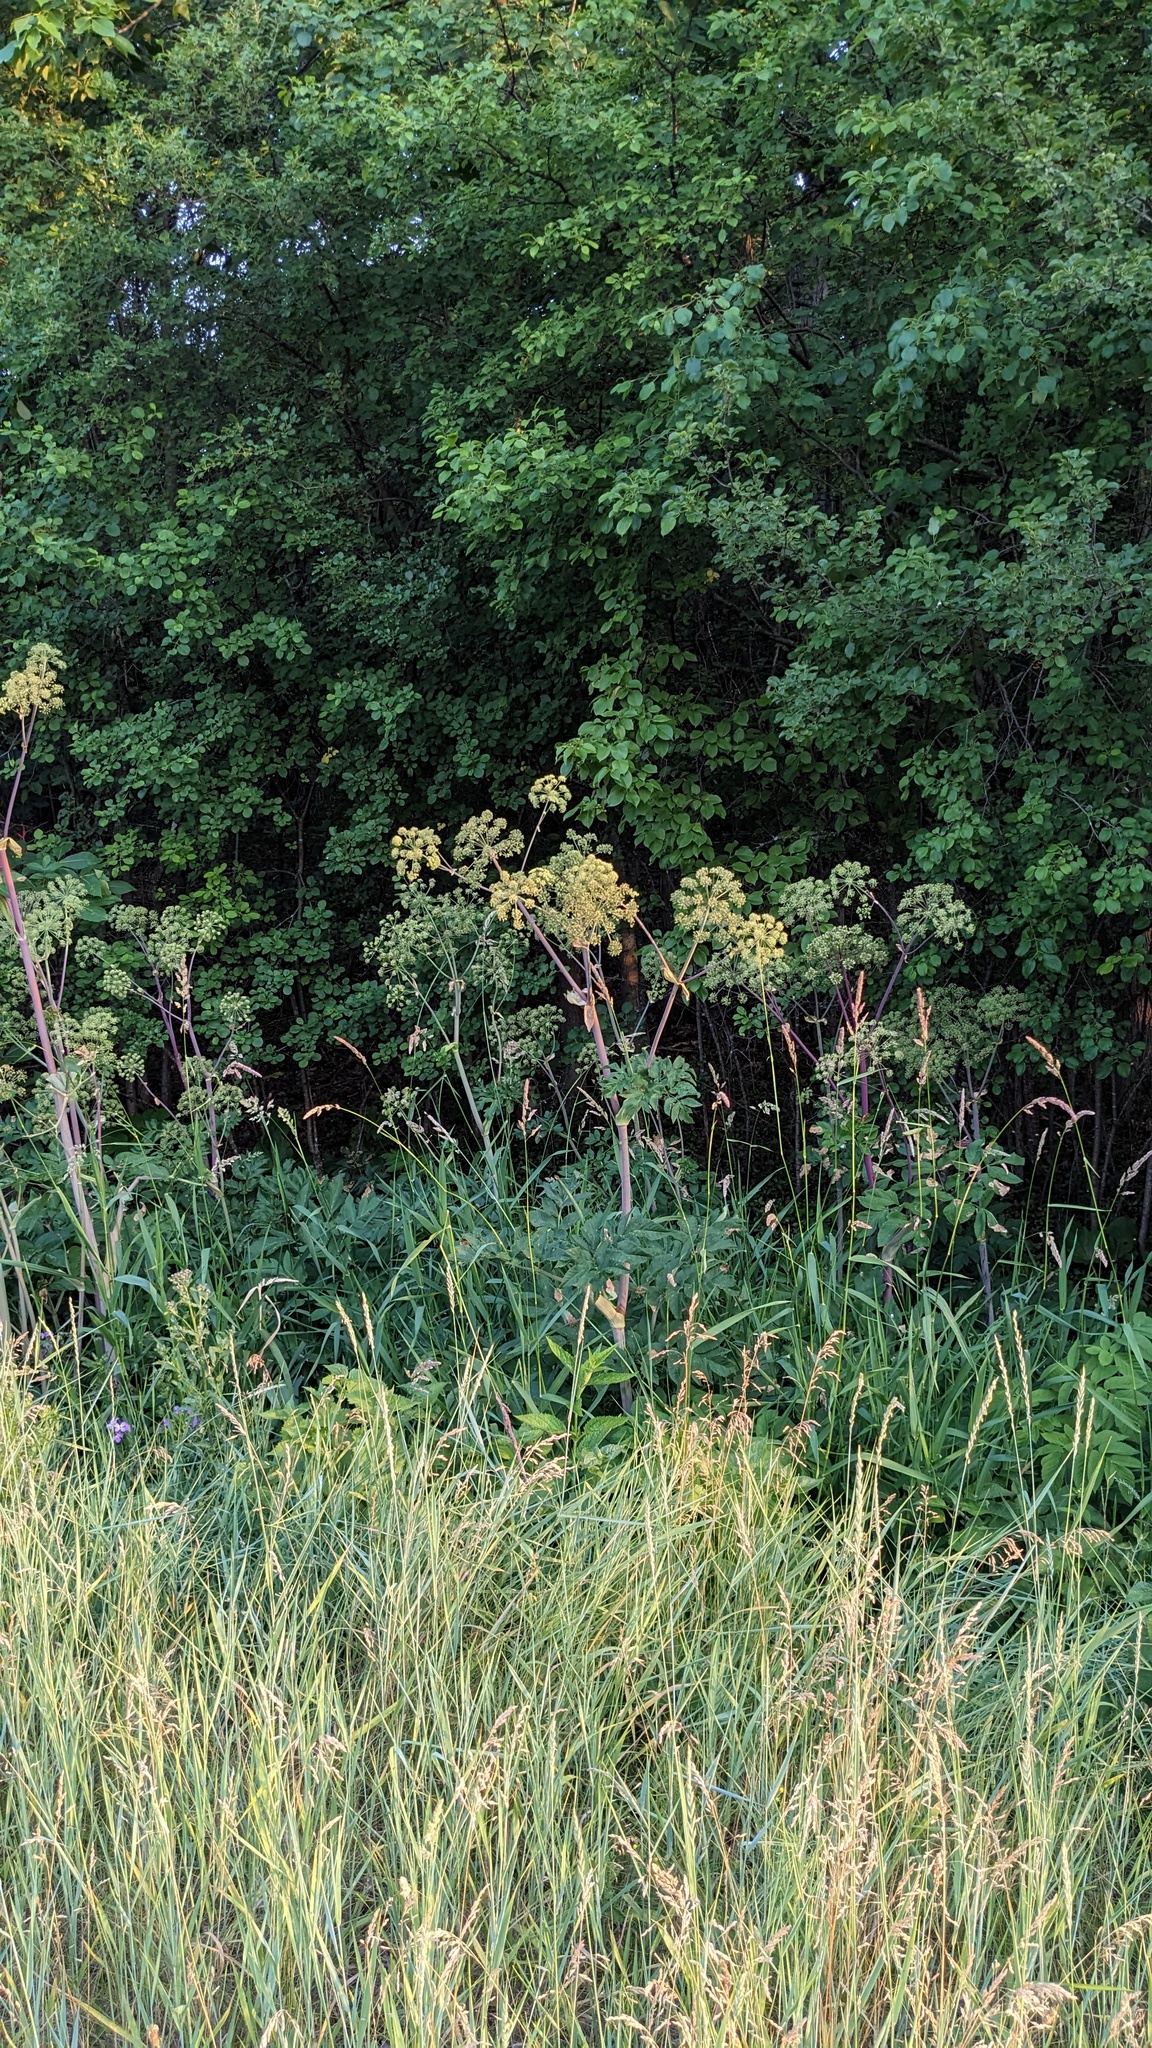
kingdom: Plantae
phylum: Tracheophyta
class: Magnoliopsida
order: Apiales
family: Apiaceae
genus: Angelica
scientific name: Angelica atropurpurea
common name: Great angelica
